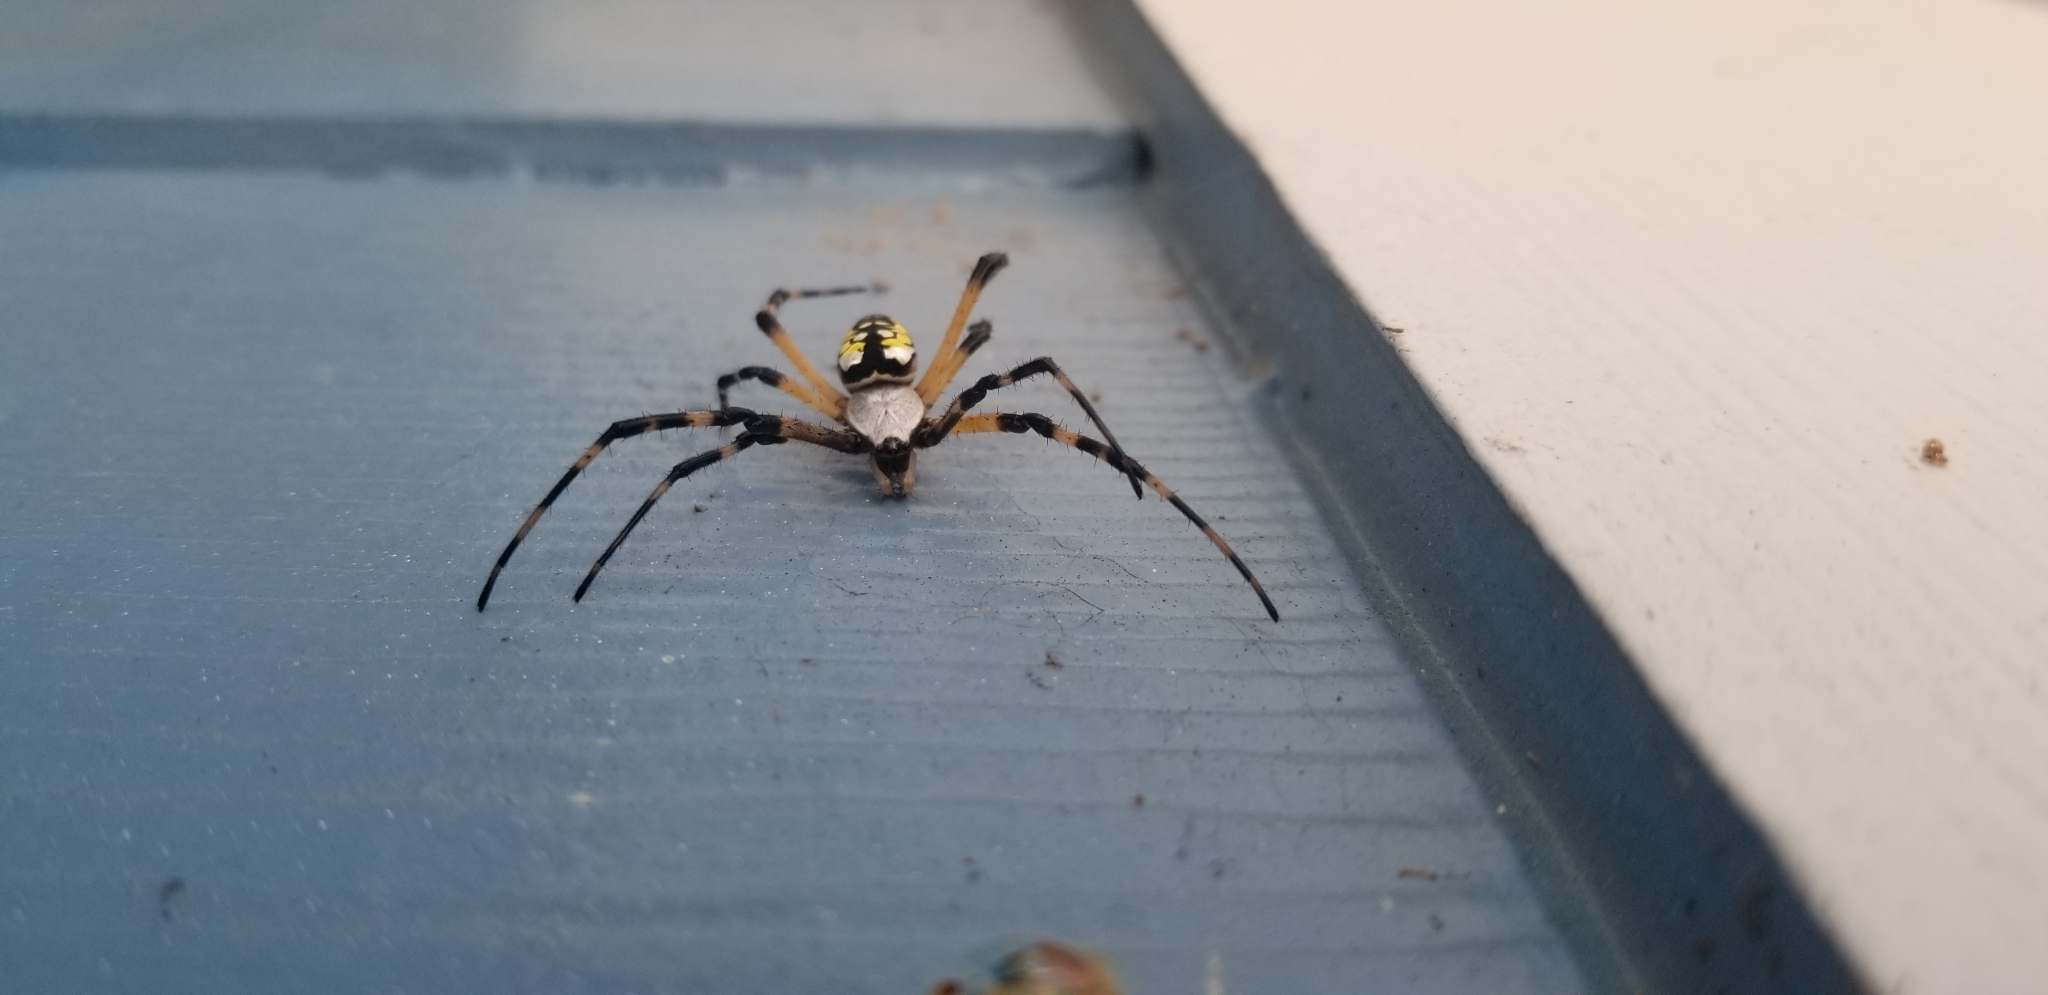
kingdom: Animalia
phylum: Arthropoda
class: Arachnida
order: Araneae
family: Araneidae
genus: Argiope
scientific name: Argiope aurantia
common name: Orb weavers
